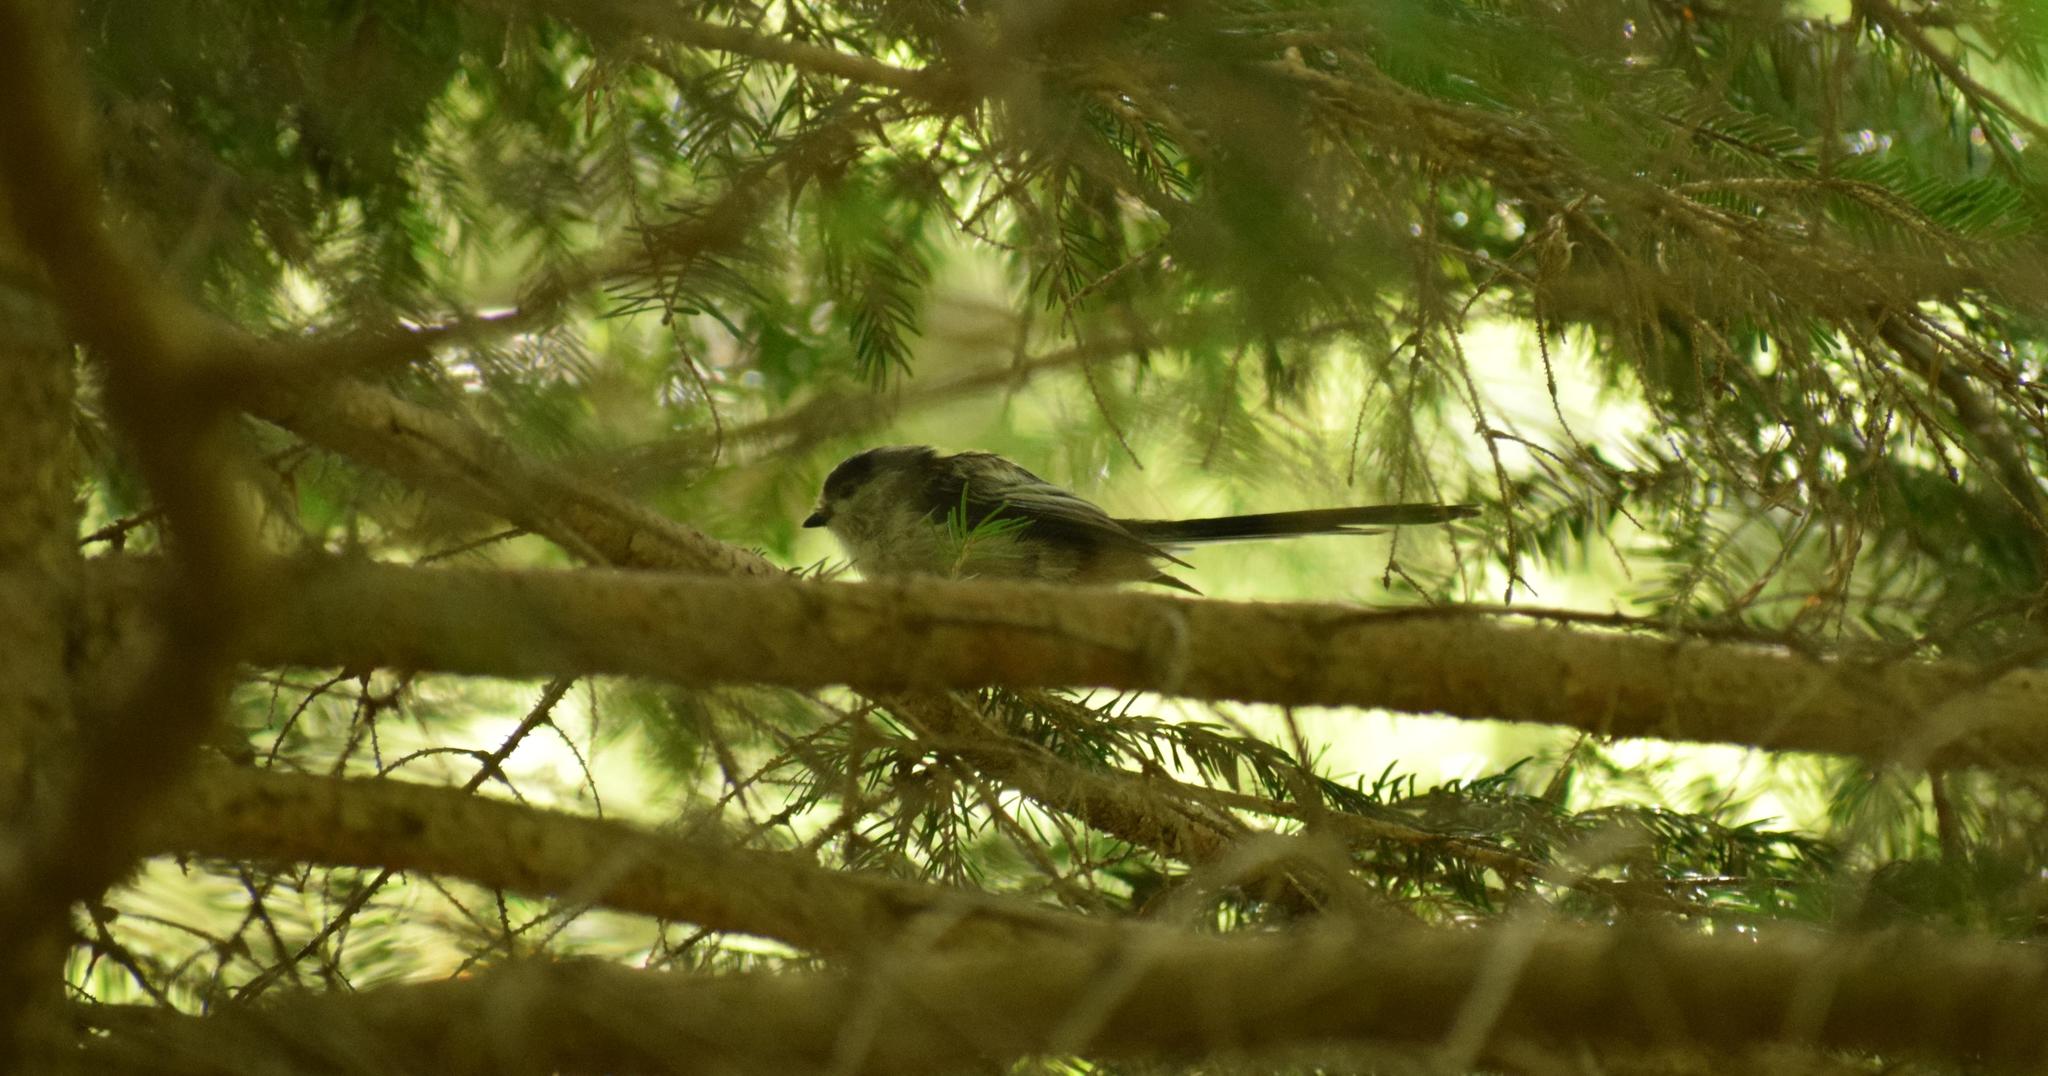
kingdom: Animalia
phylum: Chordata
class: Aves
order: Passeriformes
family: Aegithalidae
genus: Aegithalos
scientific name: Aegithalos caudatus
